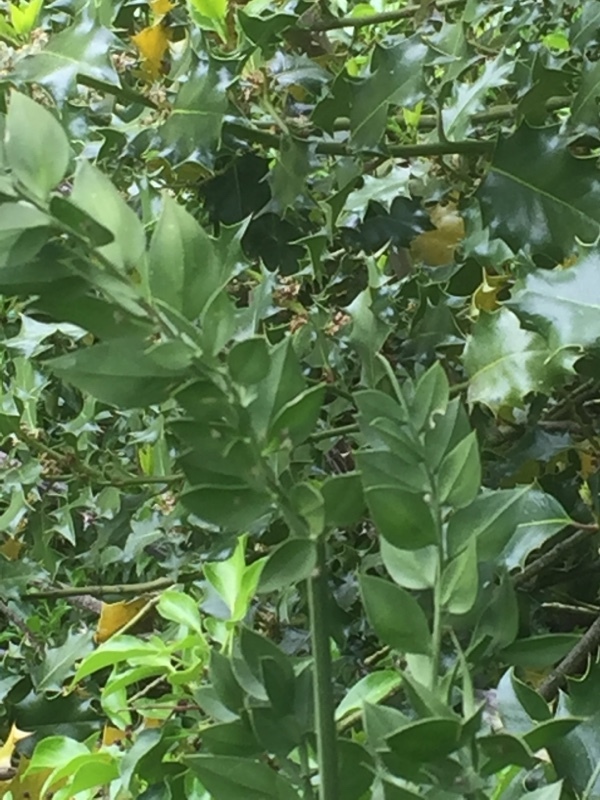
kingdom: Plantae
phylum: Tracheophyta
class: Liliopsida
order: Asparagales
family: Asparagaceae
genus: Ruscus
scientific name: Ruscus aculeatus
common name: Butcher's-broom
